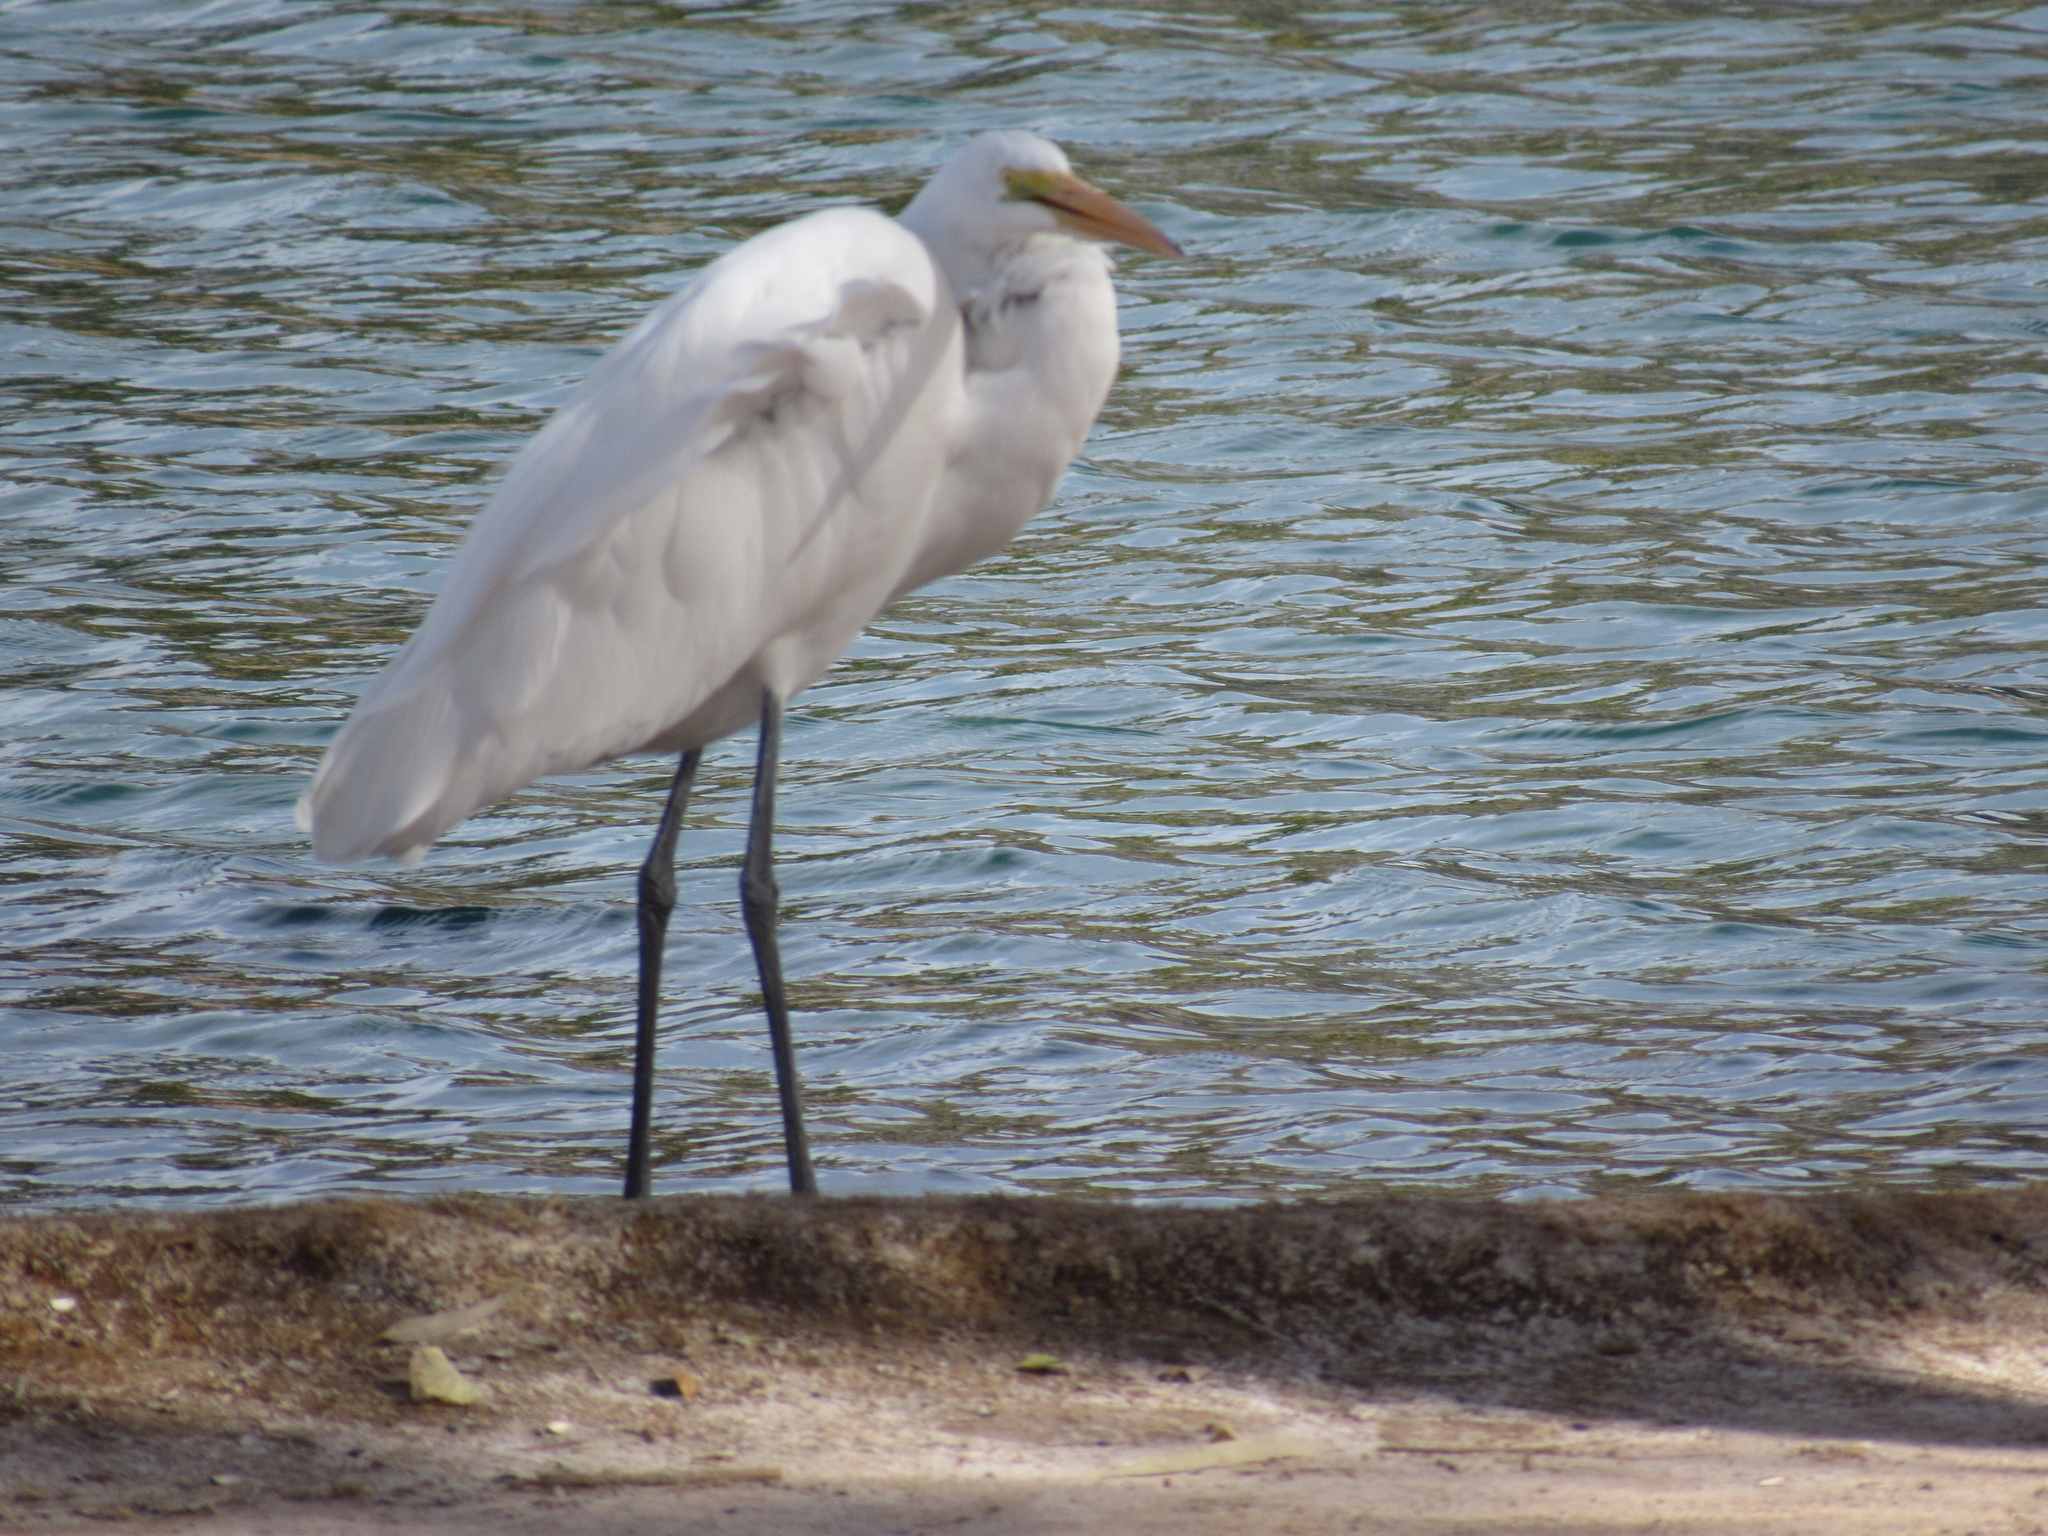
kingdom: Animalia
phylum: Chordata
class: Aves
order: Pelecaniformes
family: Ardeidae
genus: Ardea
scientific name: Ardea alba
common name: Great egret
